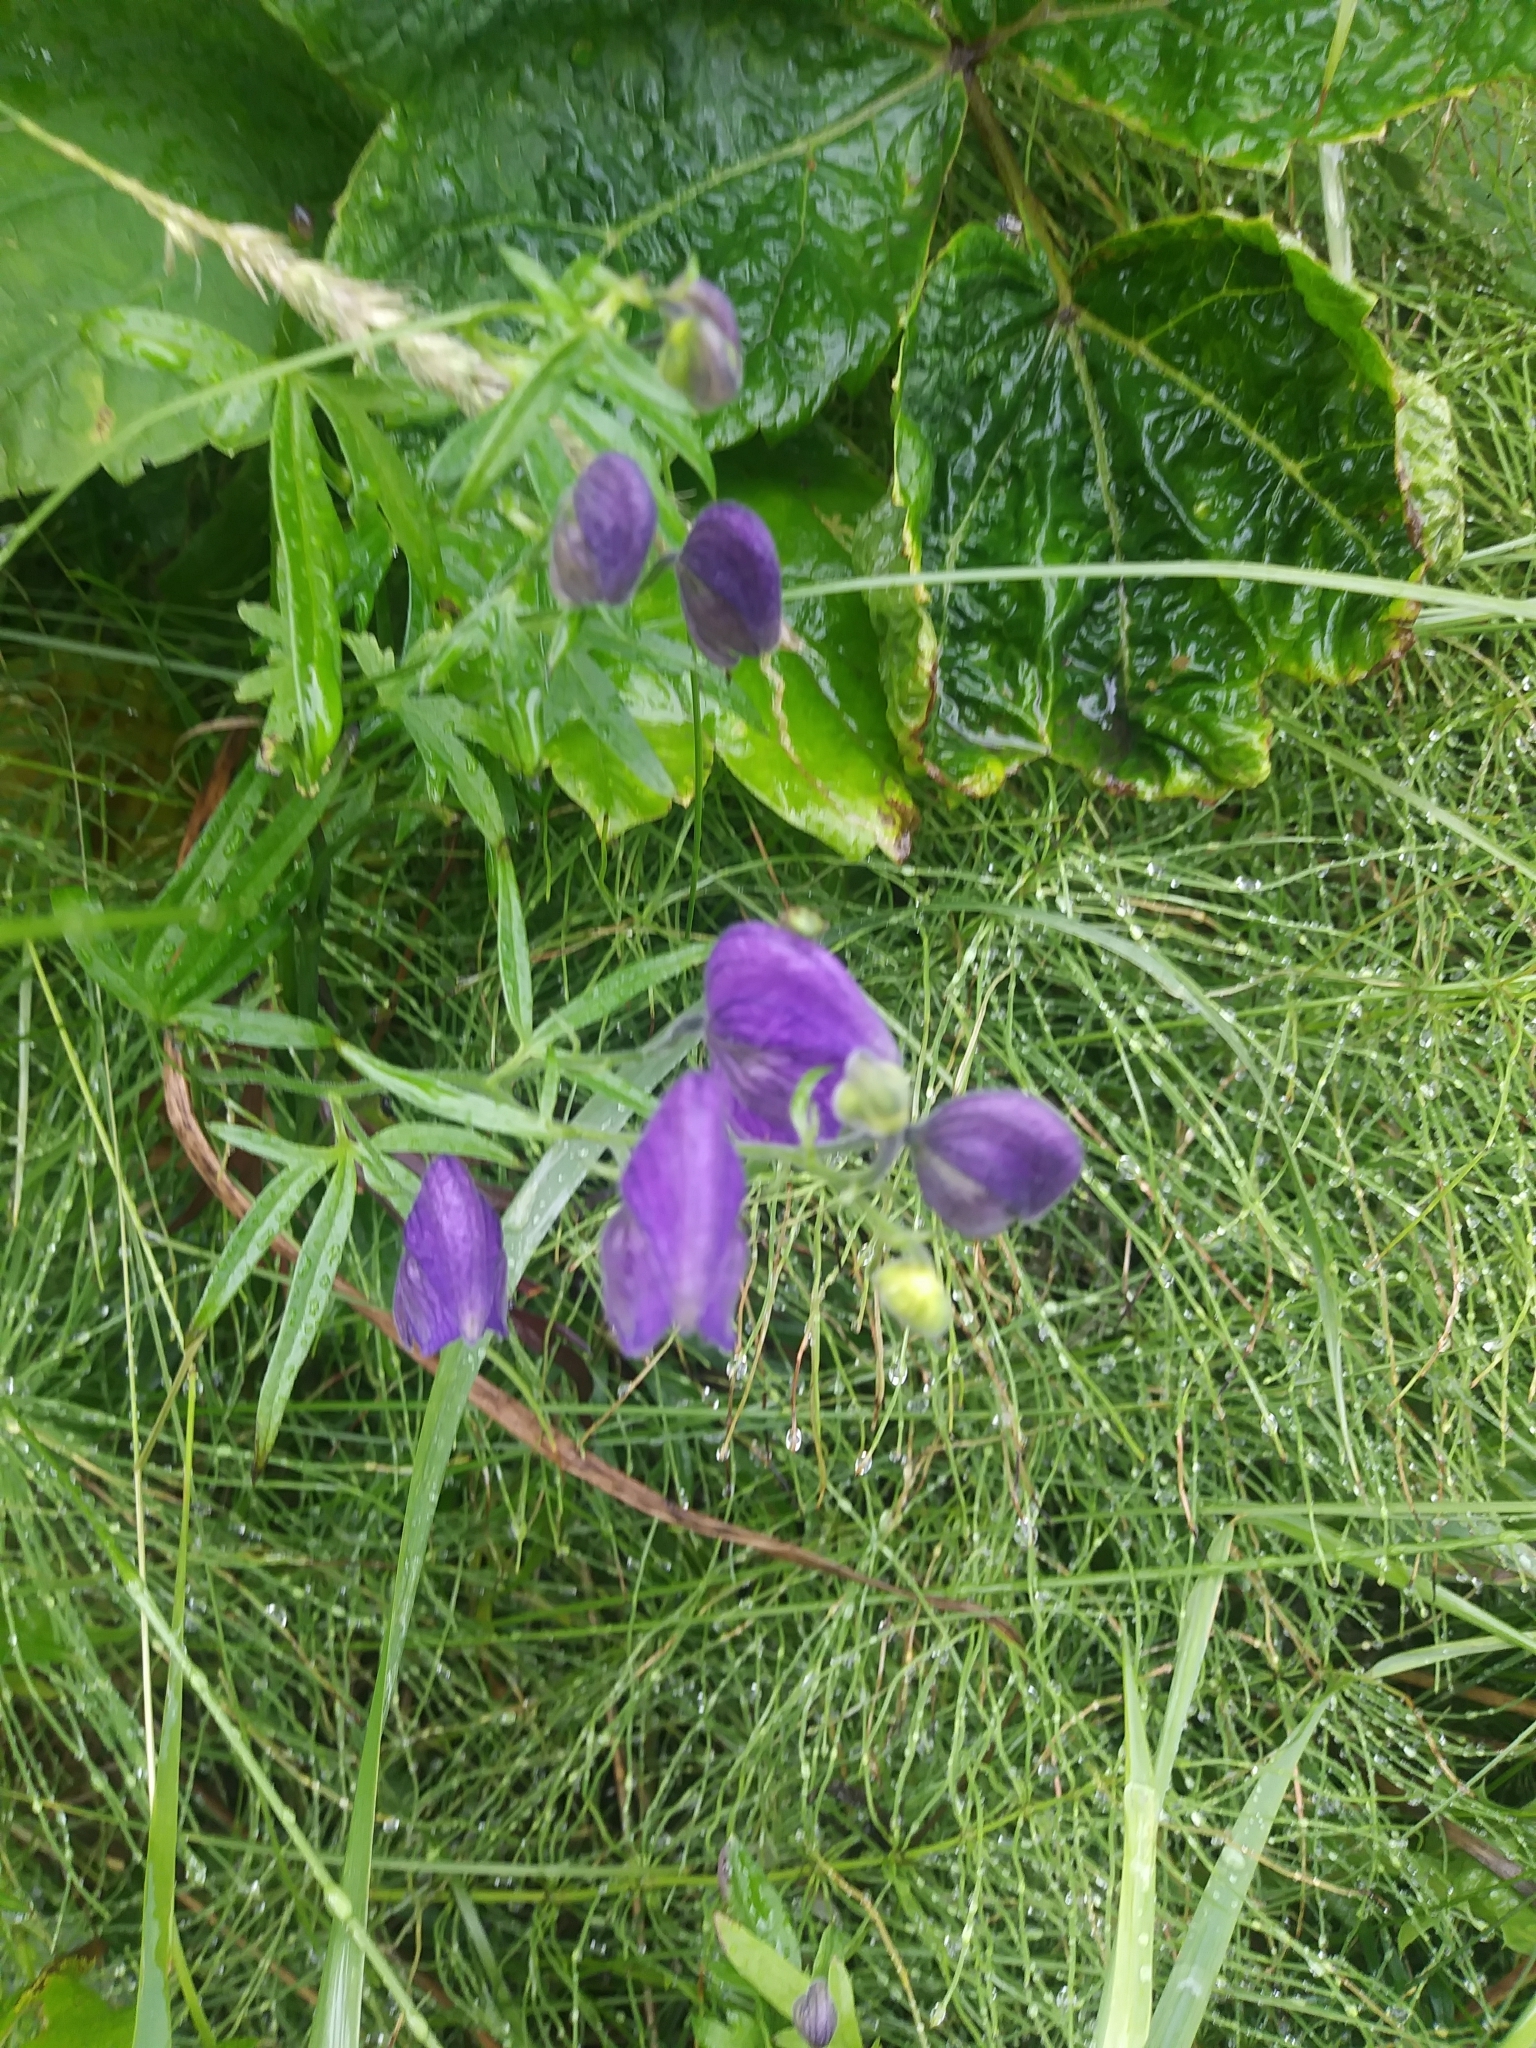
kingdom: Plantae
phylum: Tracheophyta
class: Magnoliopsida
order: Ranunculales
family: Ranunculaceae
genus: Aconitum
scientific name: Aconitum delphiniifolium
